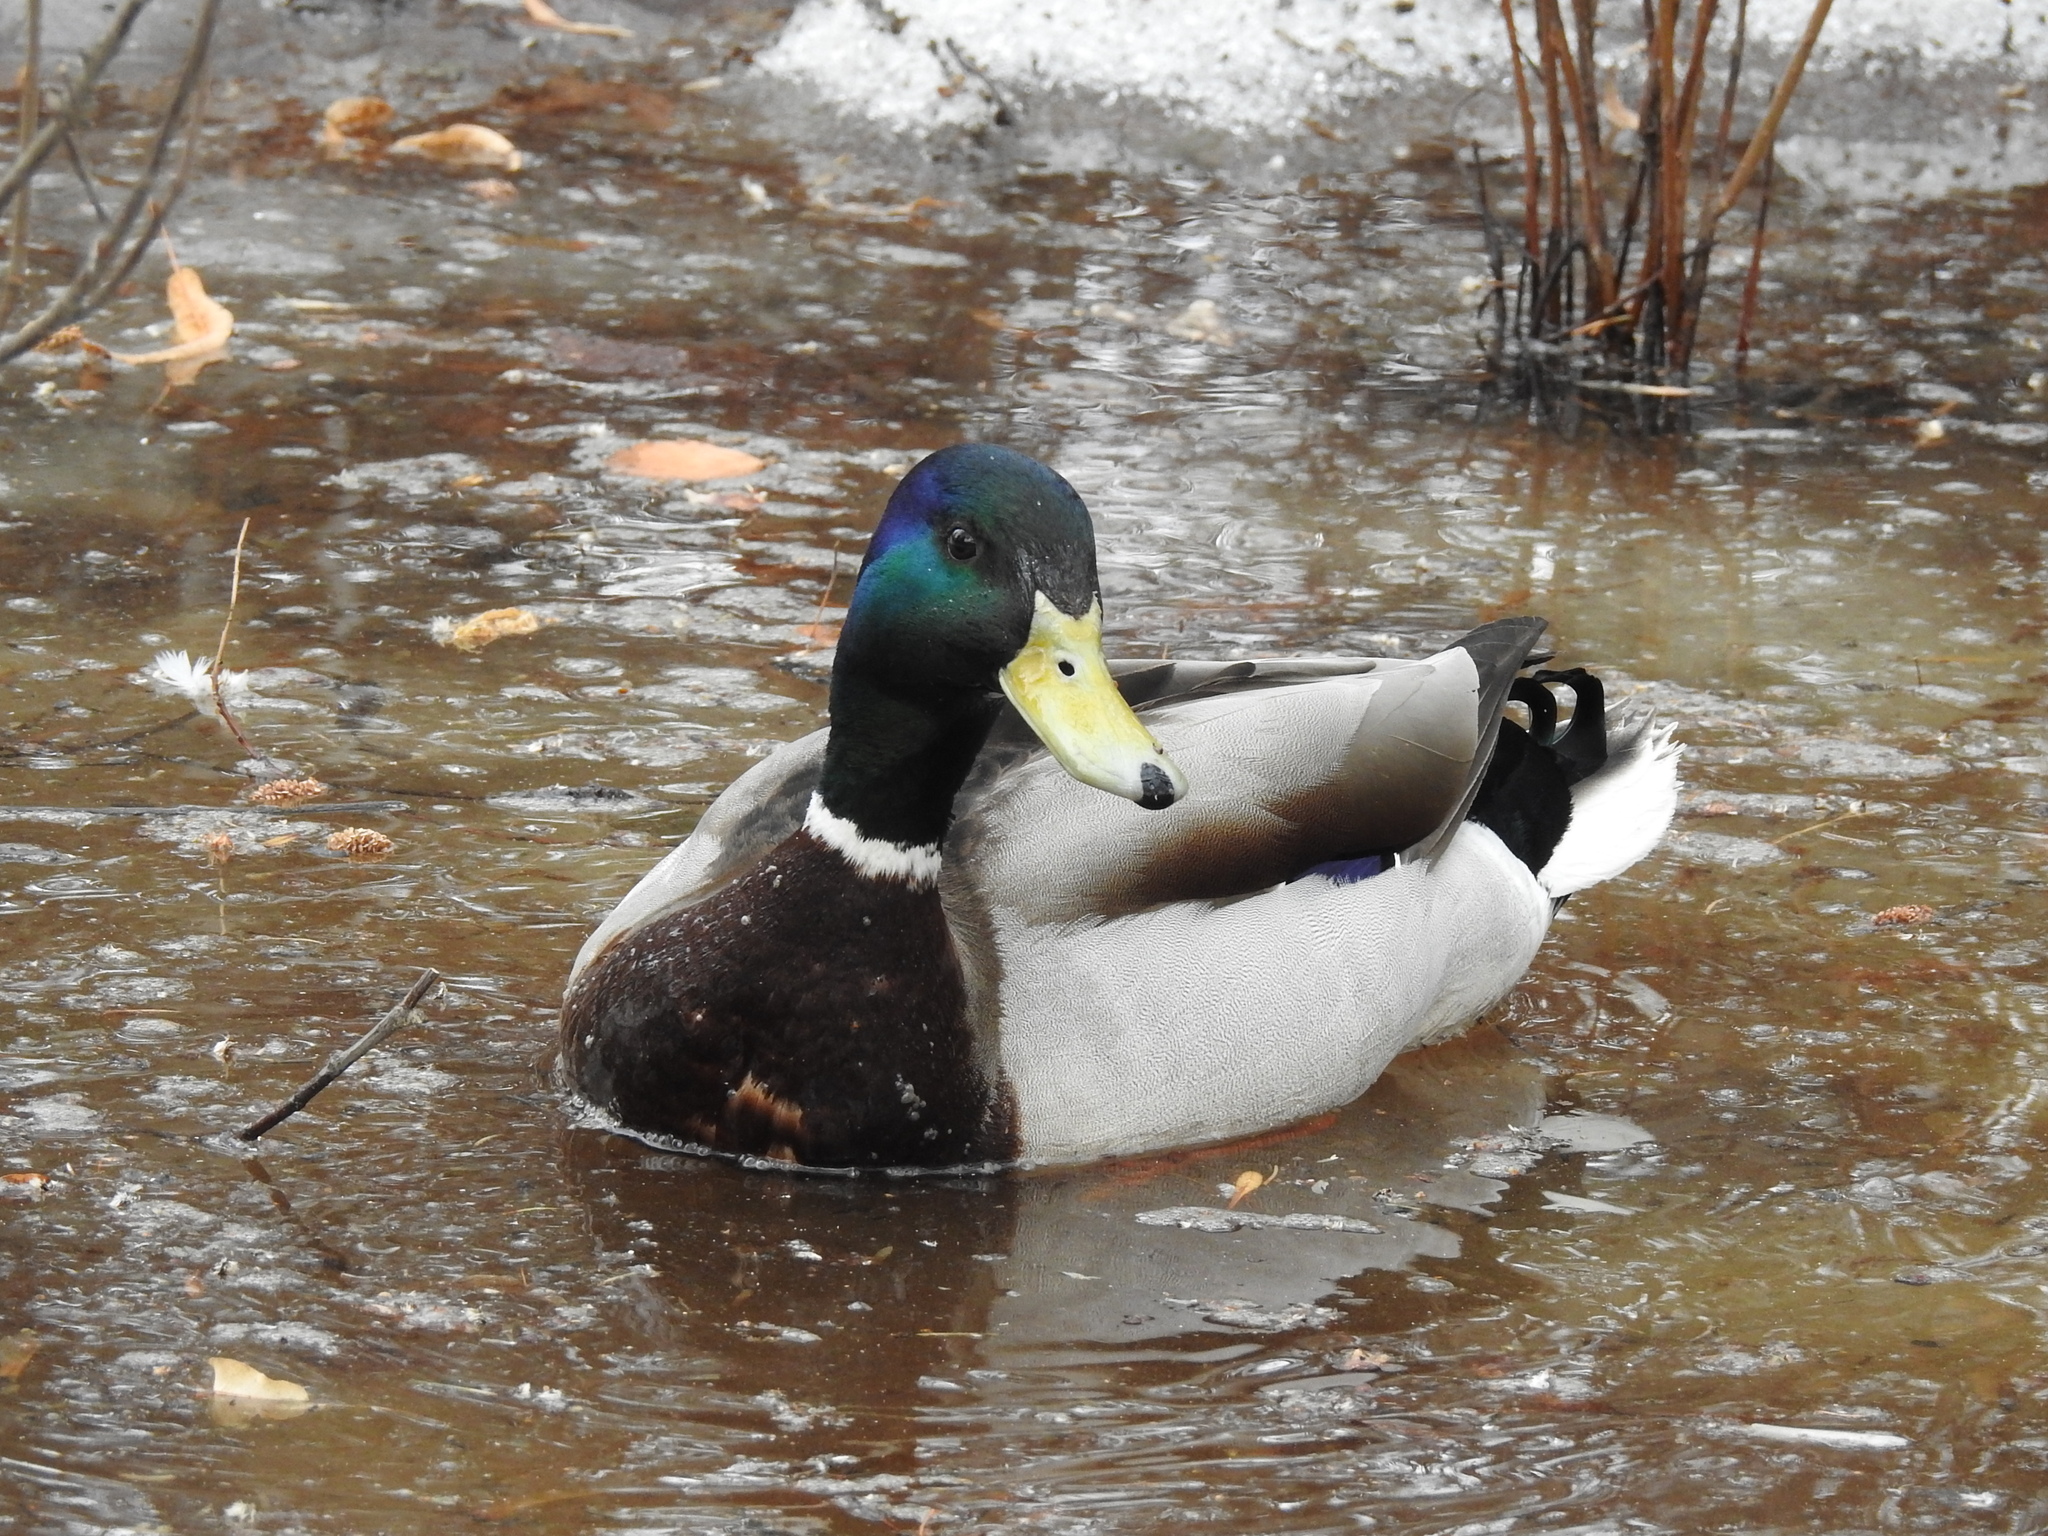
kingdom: Animalia
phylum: Chordata
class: Aves
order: Anseriformes
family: Anatidae
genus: Anas
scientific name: Anas platyrhynchos
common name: Mallard
